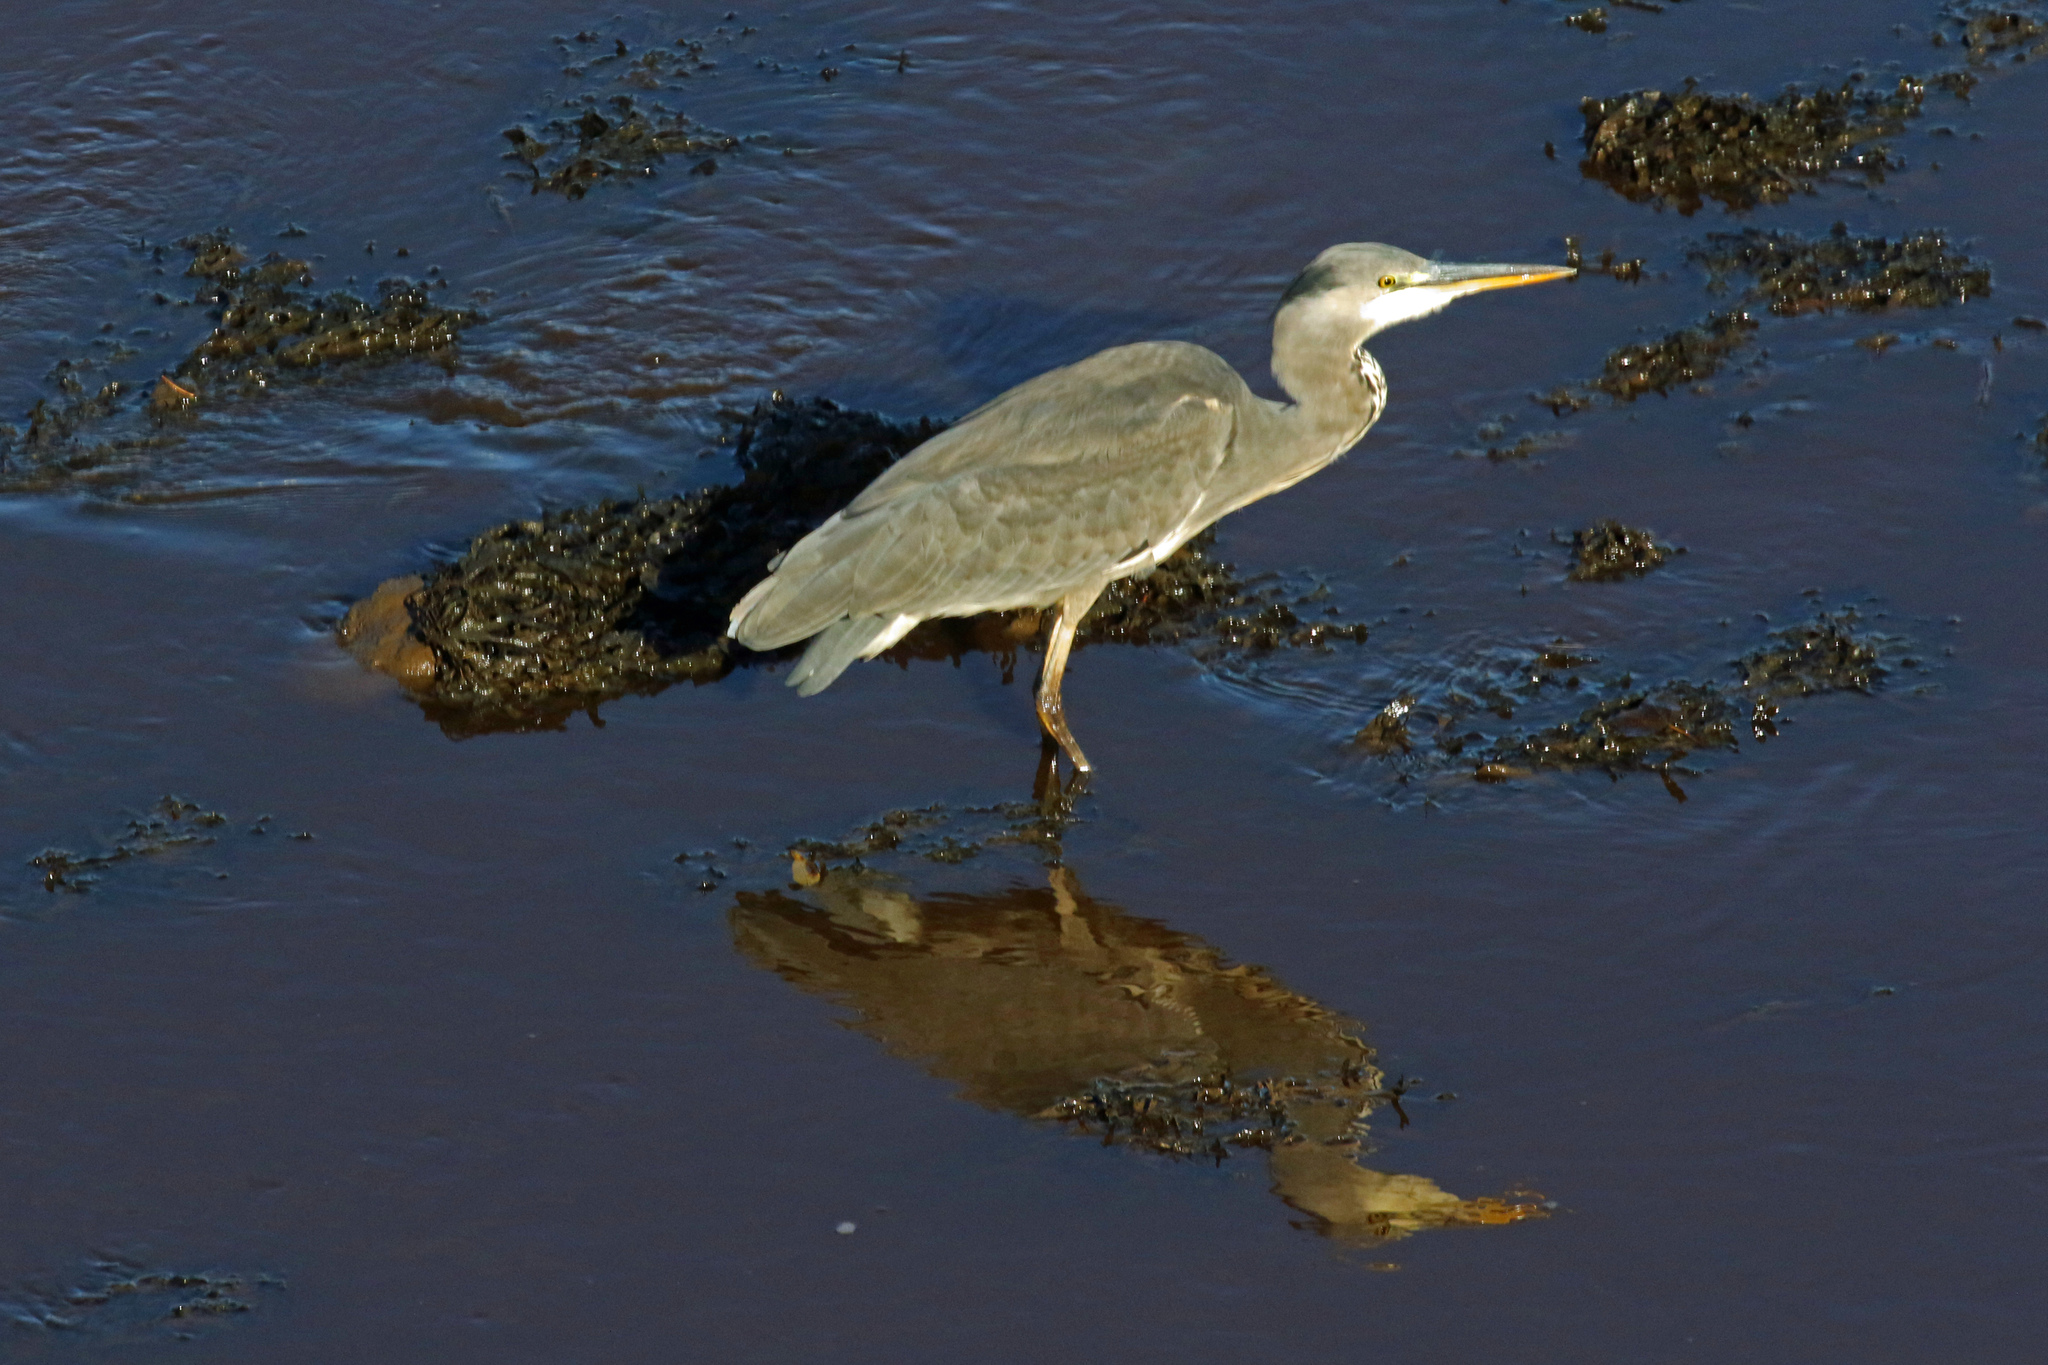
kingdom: Animalia
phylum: Chordata
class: Aves
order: Pelecaniformes
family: Ardeidae
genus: Ardea
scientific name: Ardea cinerea
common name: Grey heron
